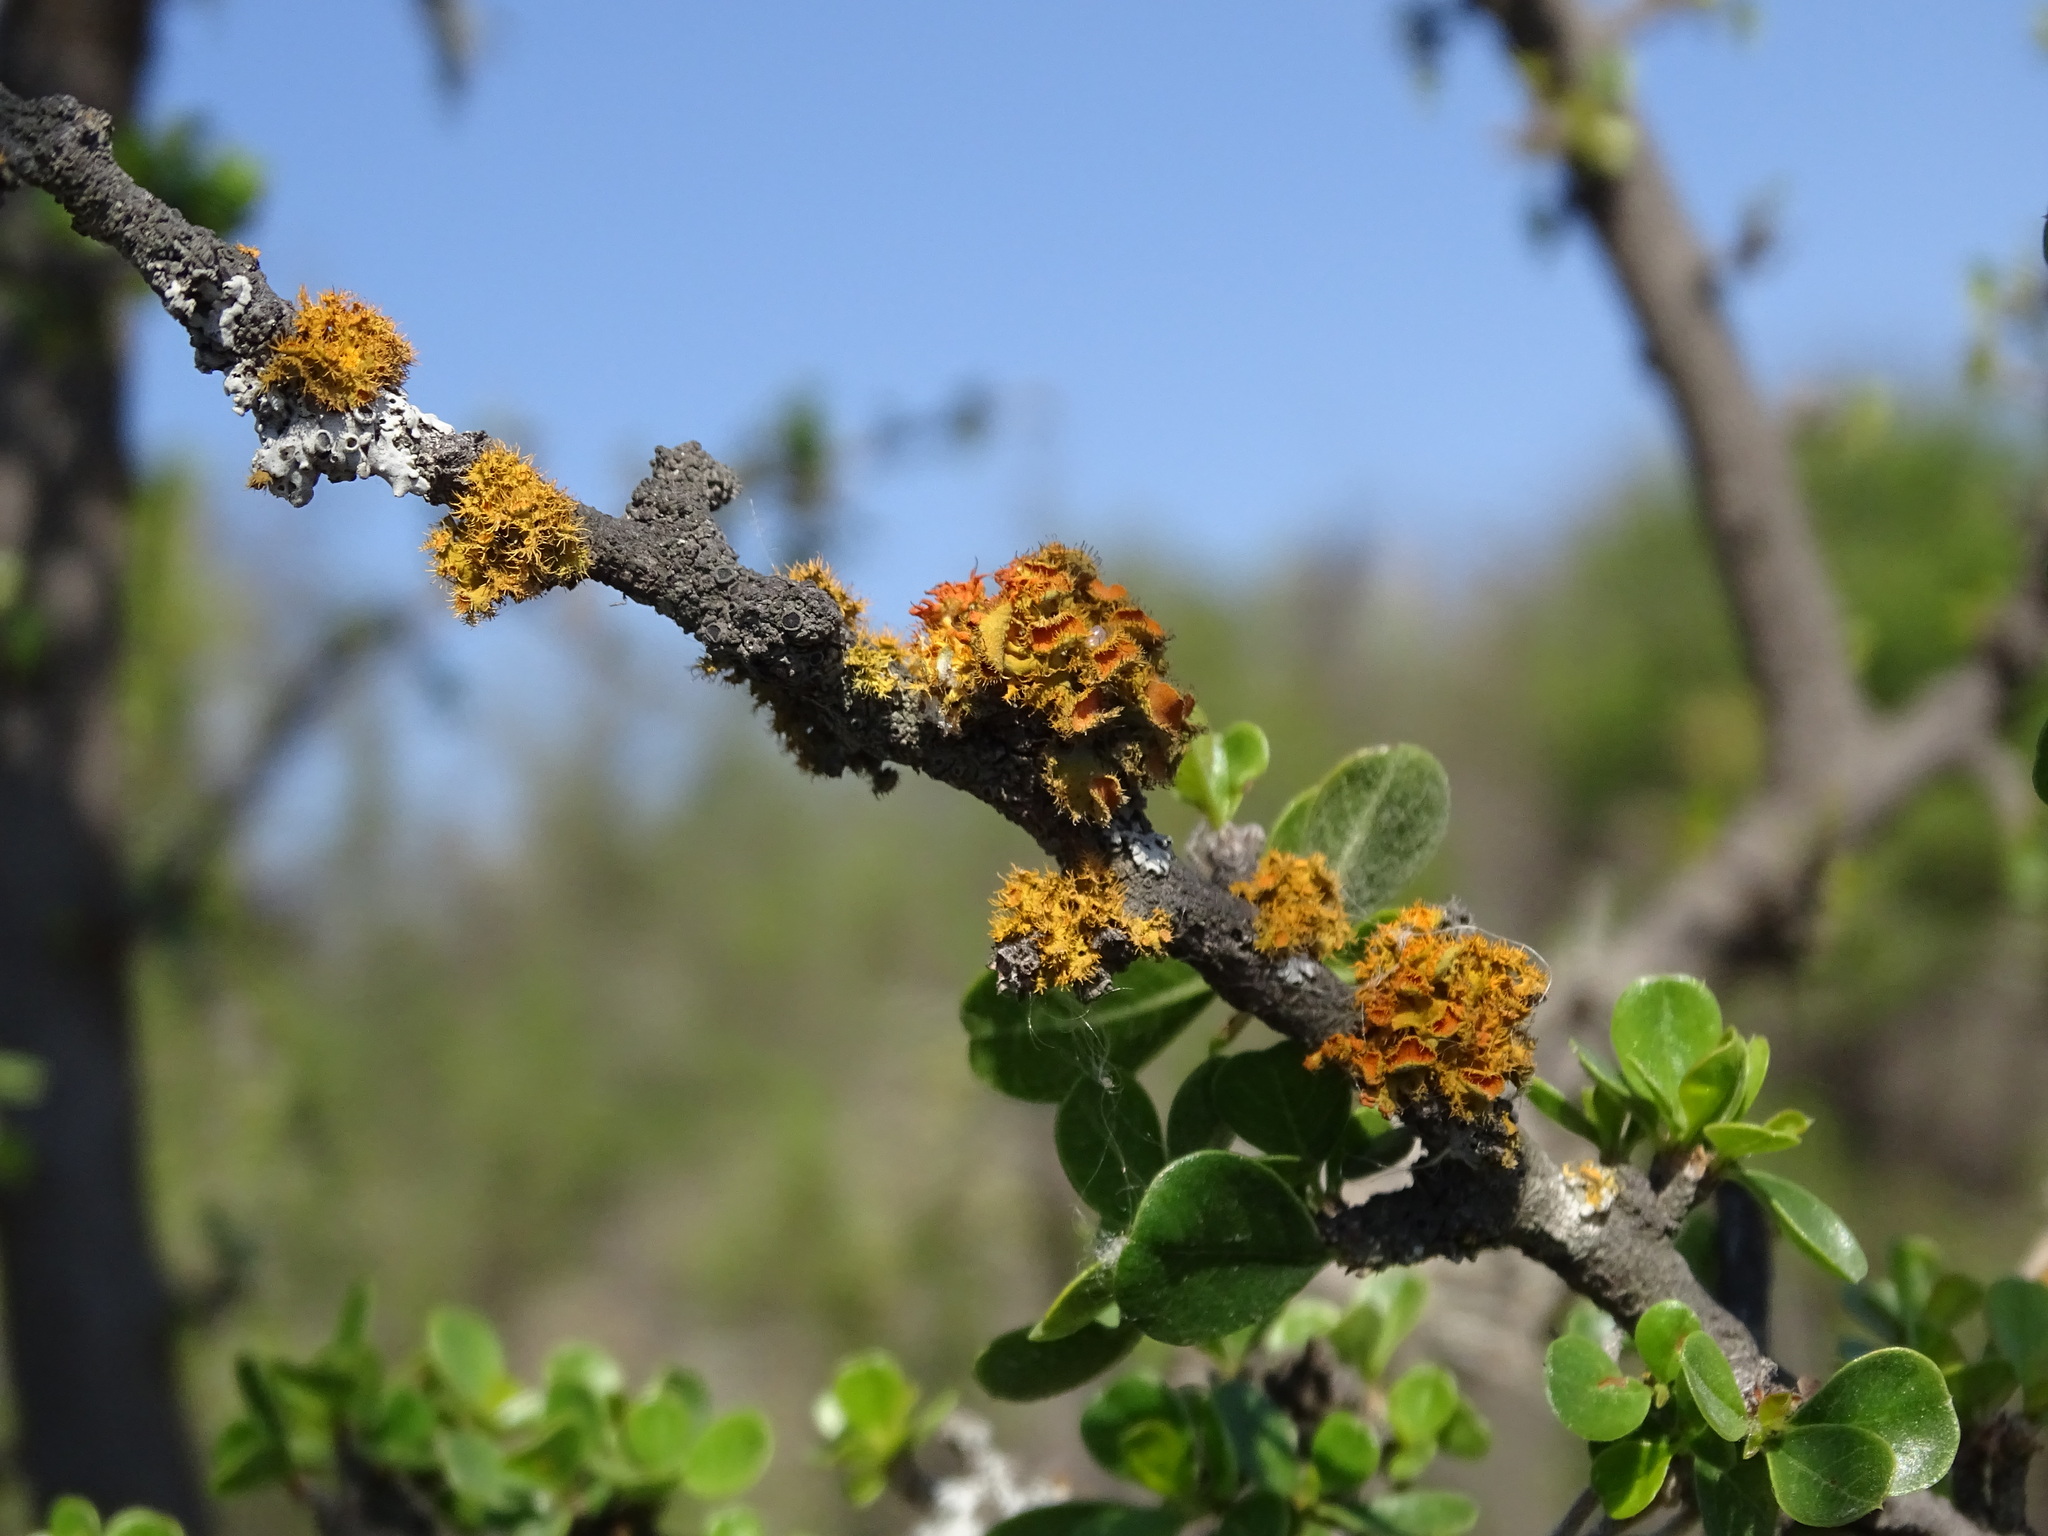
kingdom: Fungi
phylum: Ascomycota
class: Lecanoromycetes
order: Teloschistales
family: Teloschistaceae
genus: Niorma
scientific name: Niorma chrysophthalma
